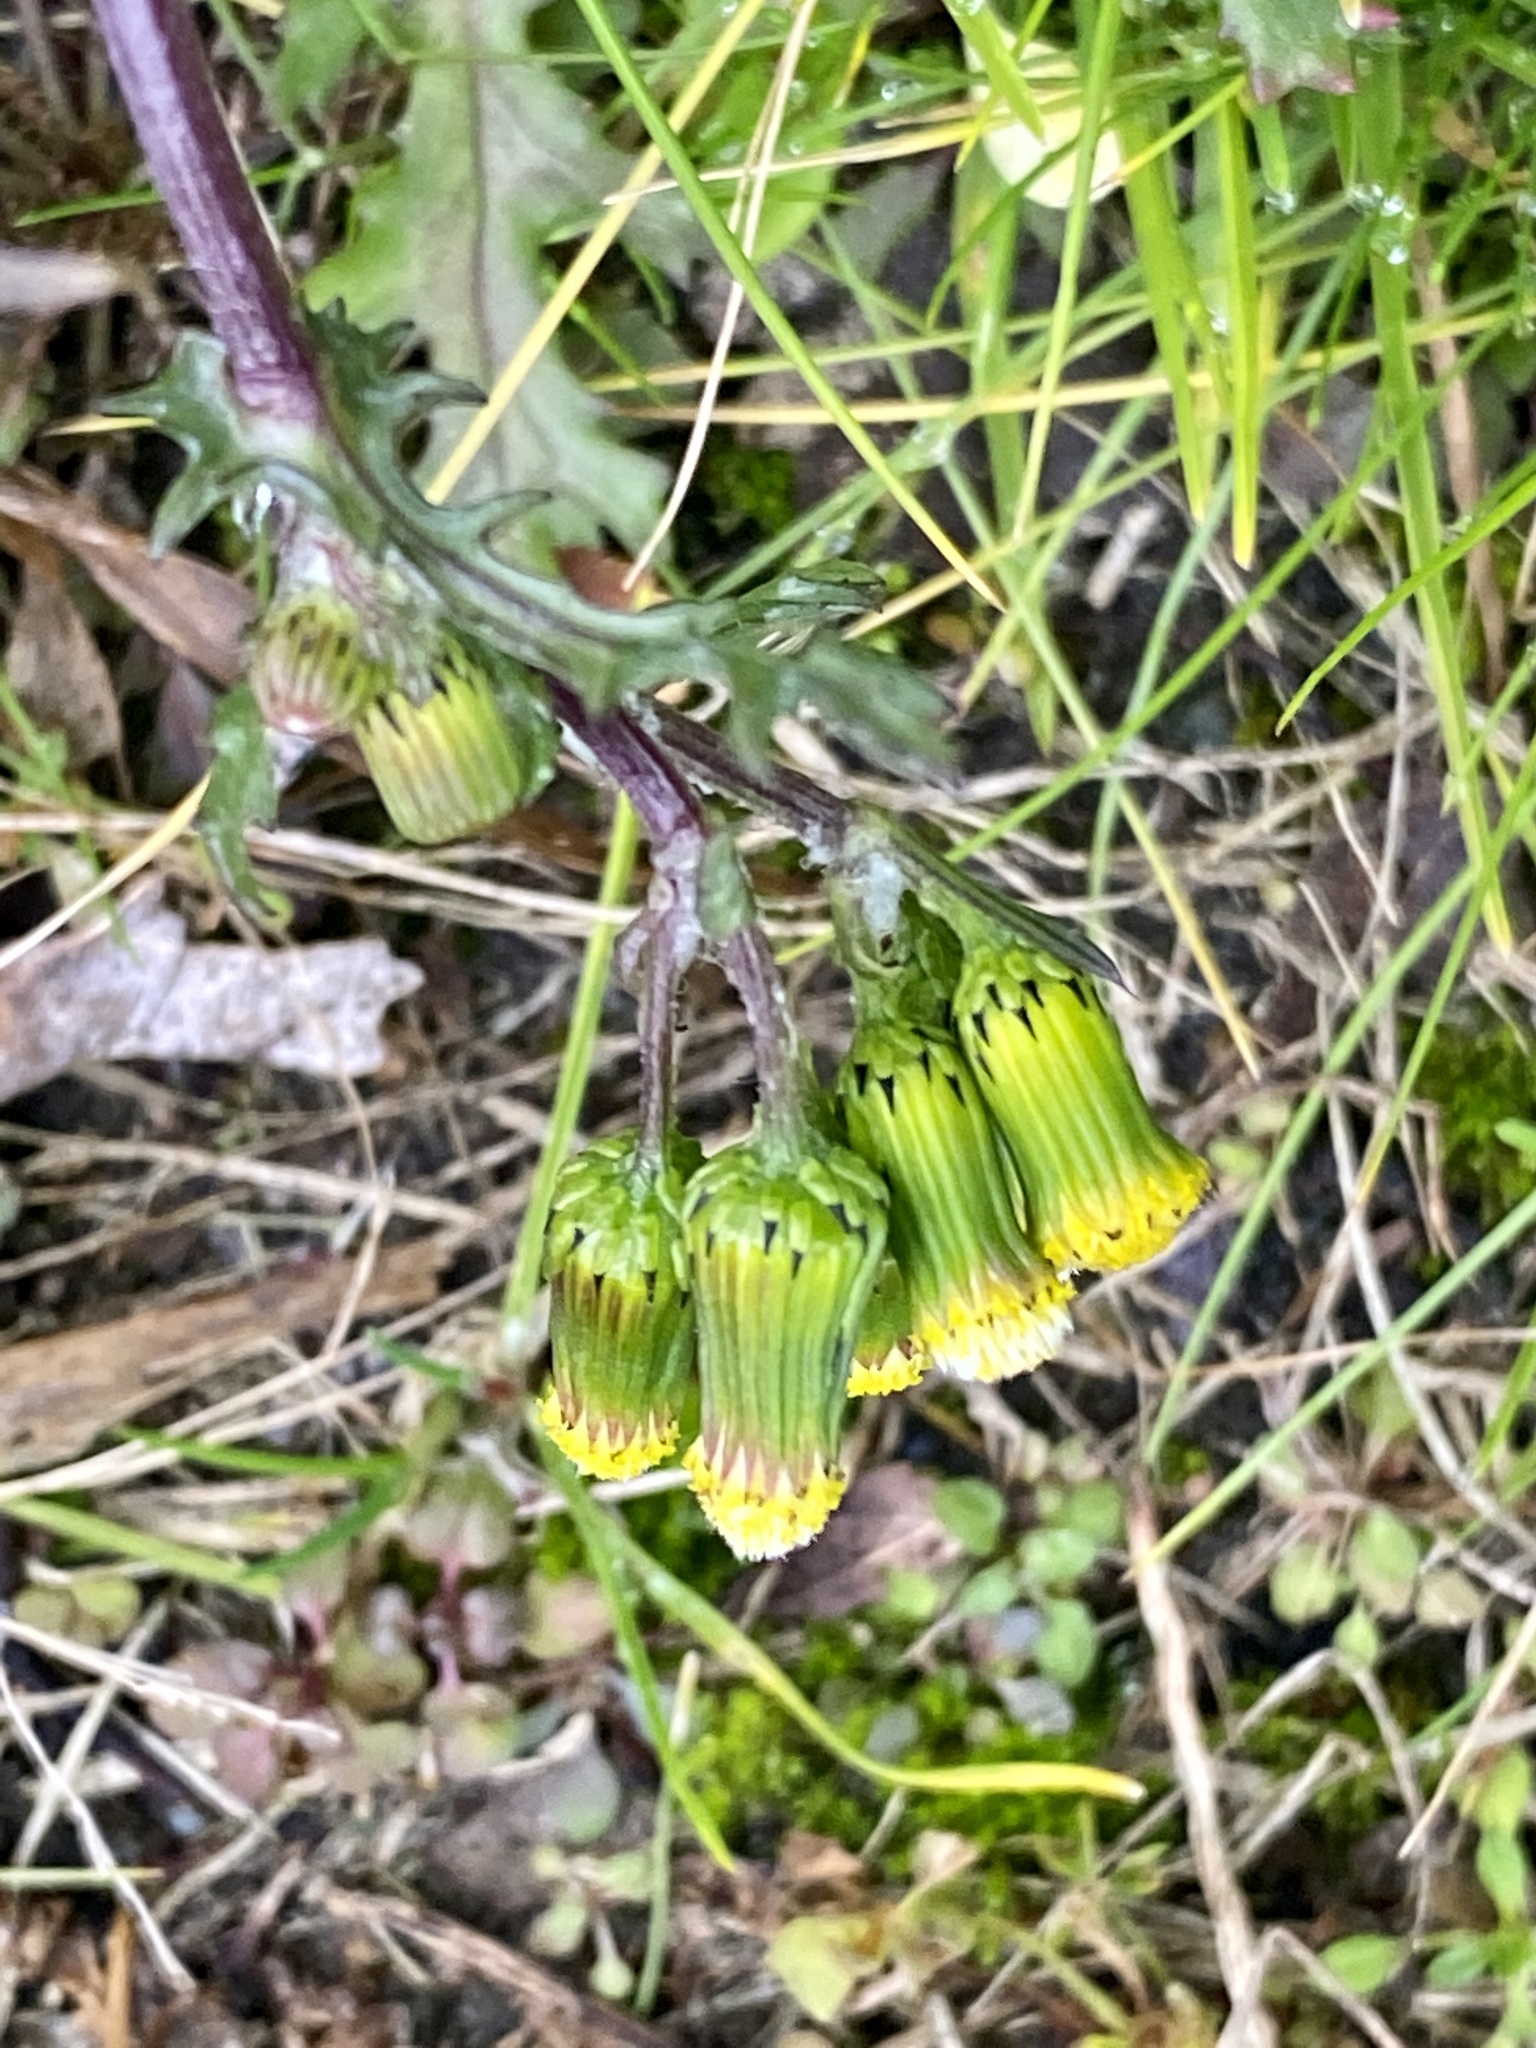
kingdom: Plantae
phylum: Tracheophyta
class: Magnoliopsida
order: Asterales
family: Asteraceae
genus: Senecio
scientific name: Senecio vulgaris
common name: Old-man-in-the-spring
